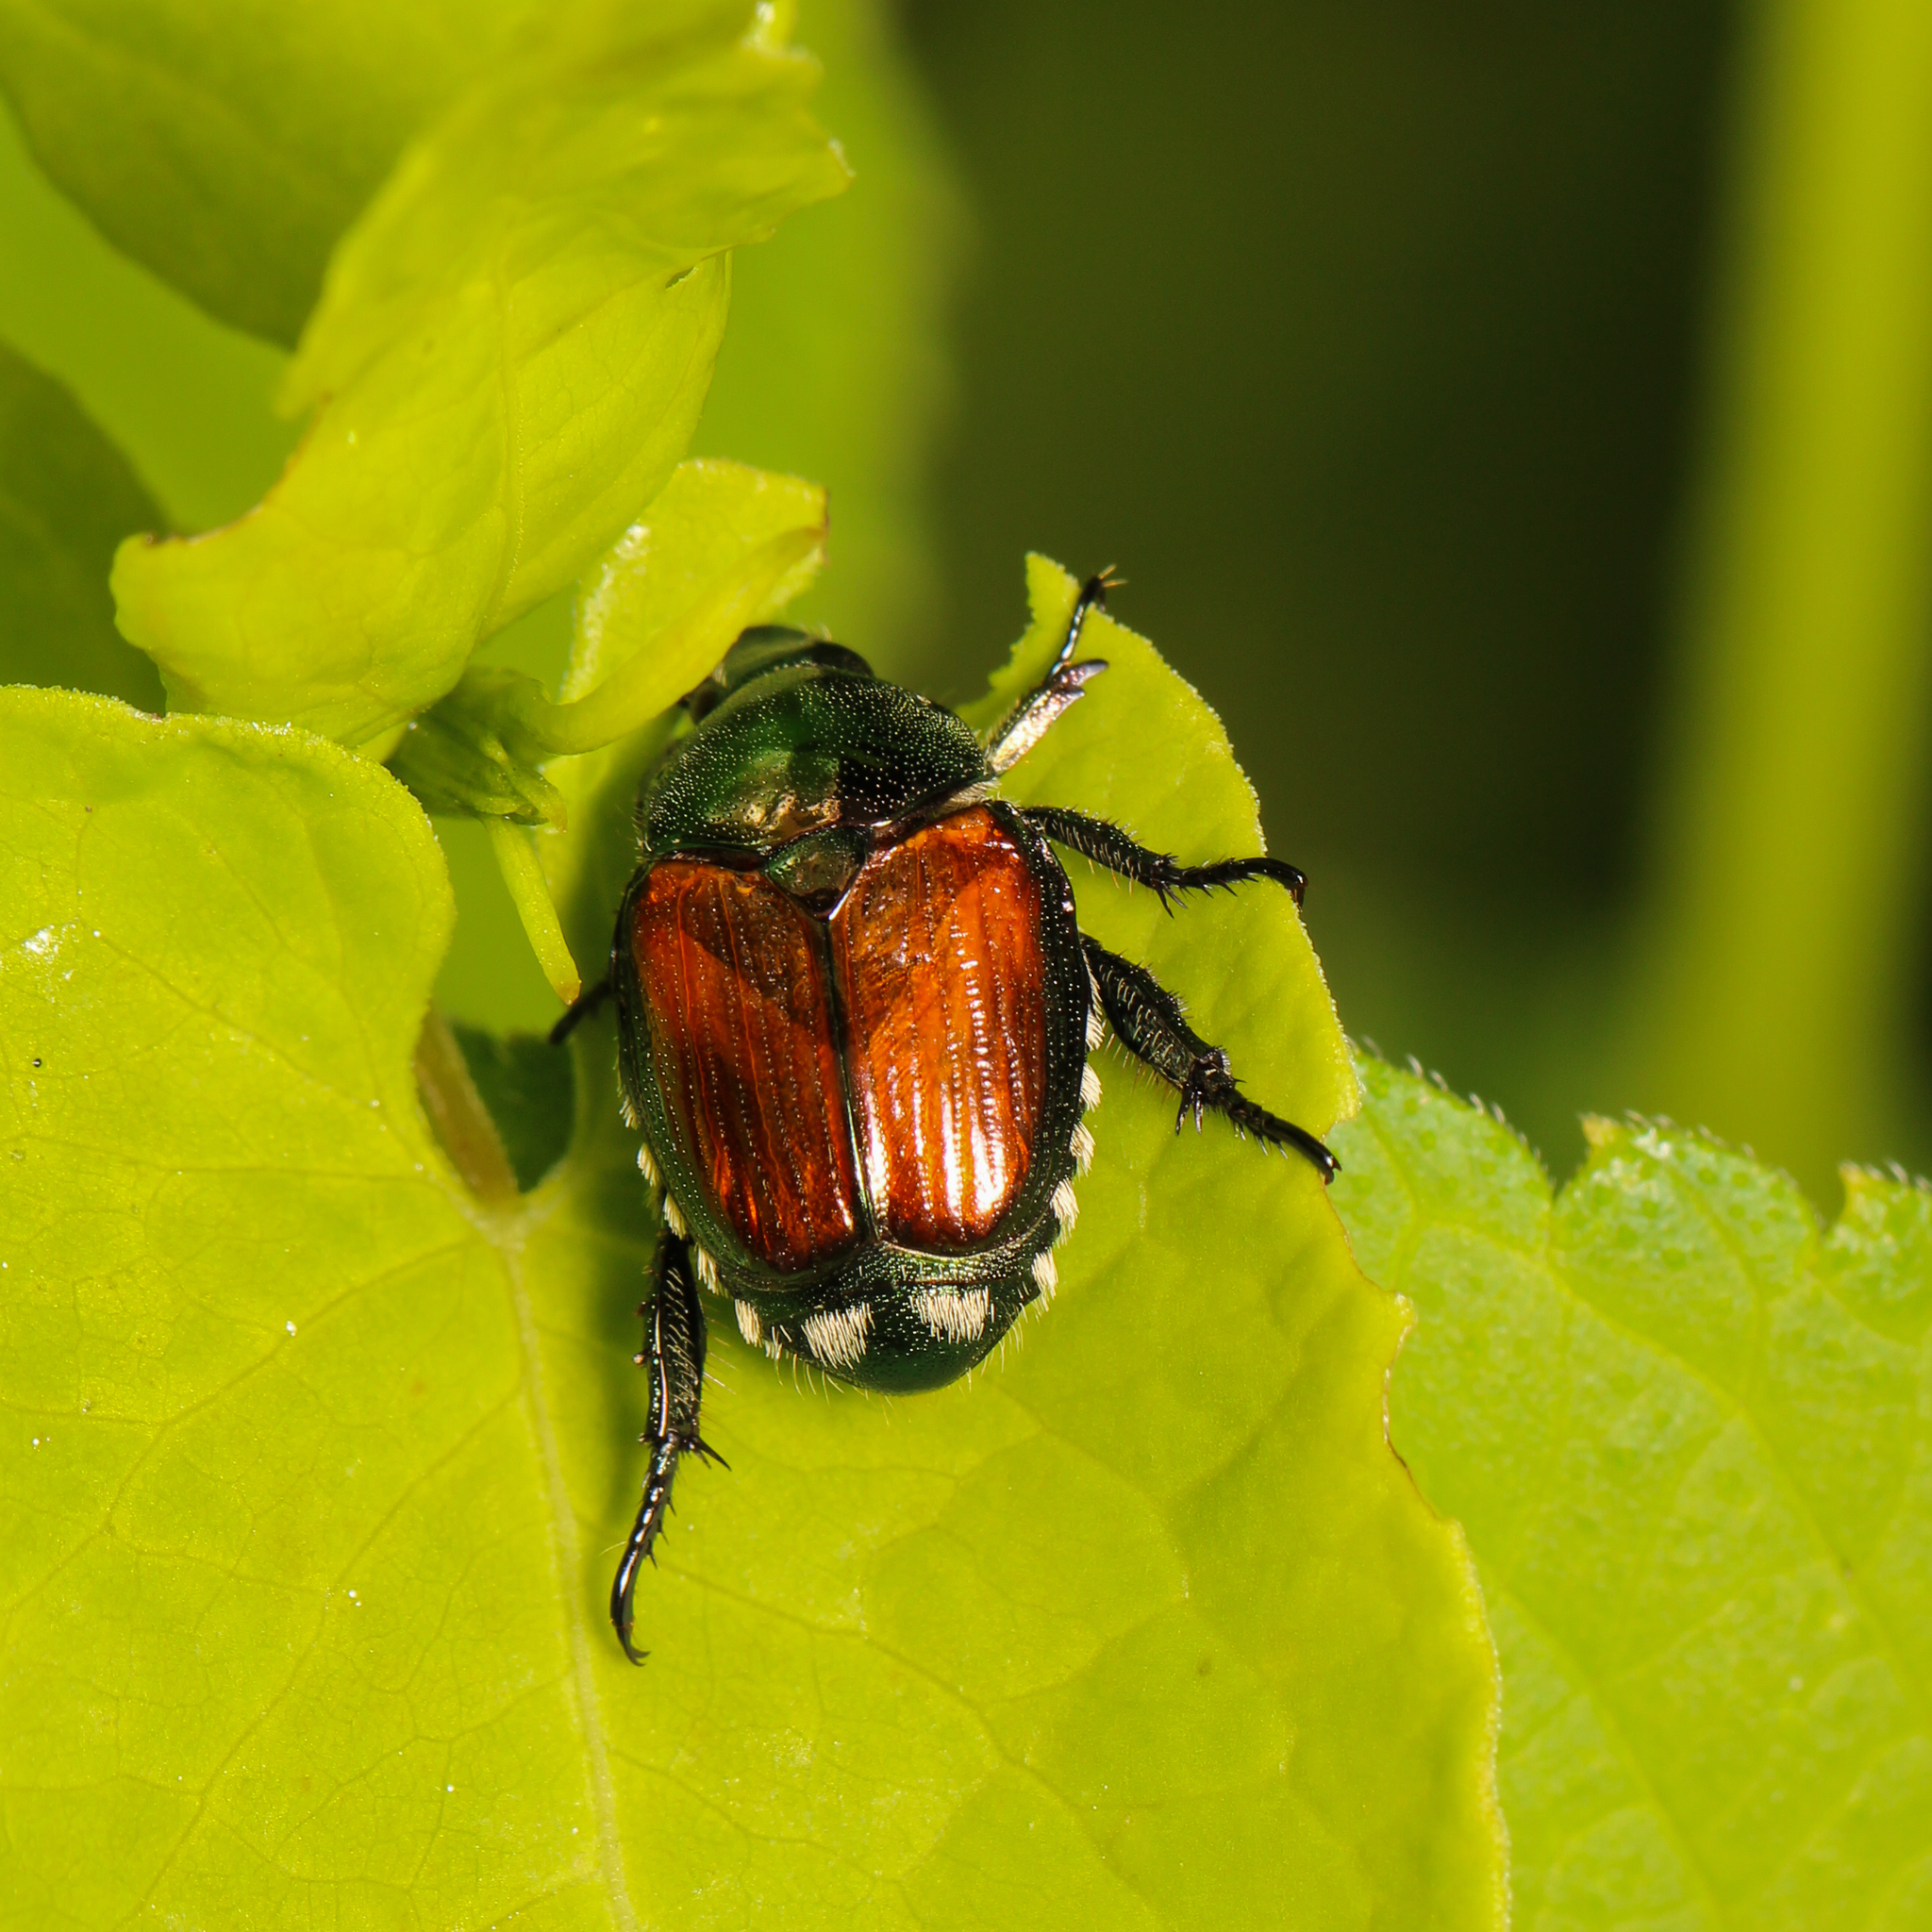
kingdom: Animalia
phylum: Arthropoda
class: Insecta
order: Coleoptera
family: Scarabaeidae
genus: Popillia
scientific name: Popillia japonica
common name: Japanese beetle
